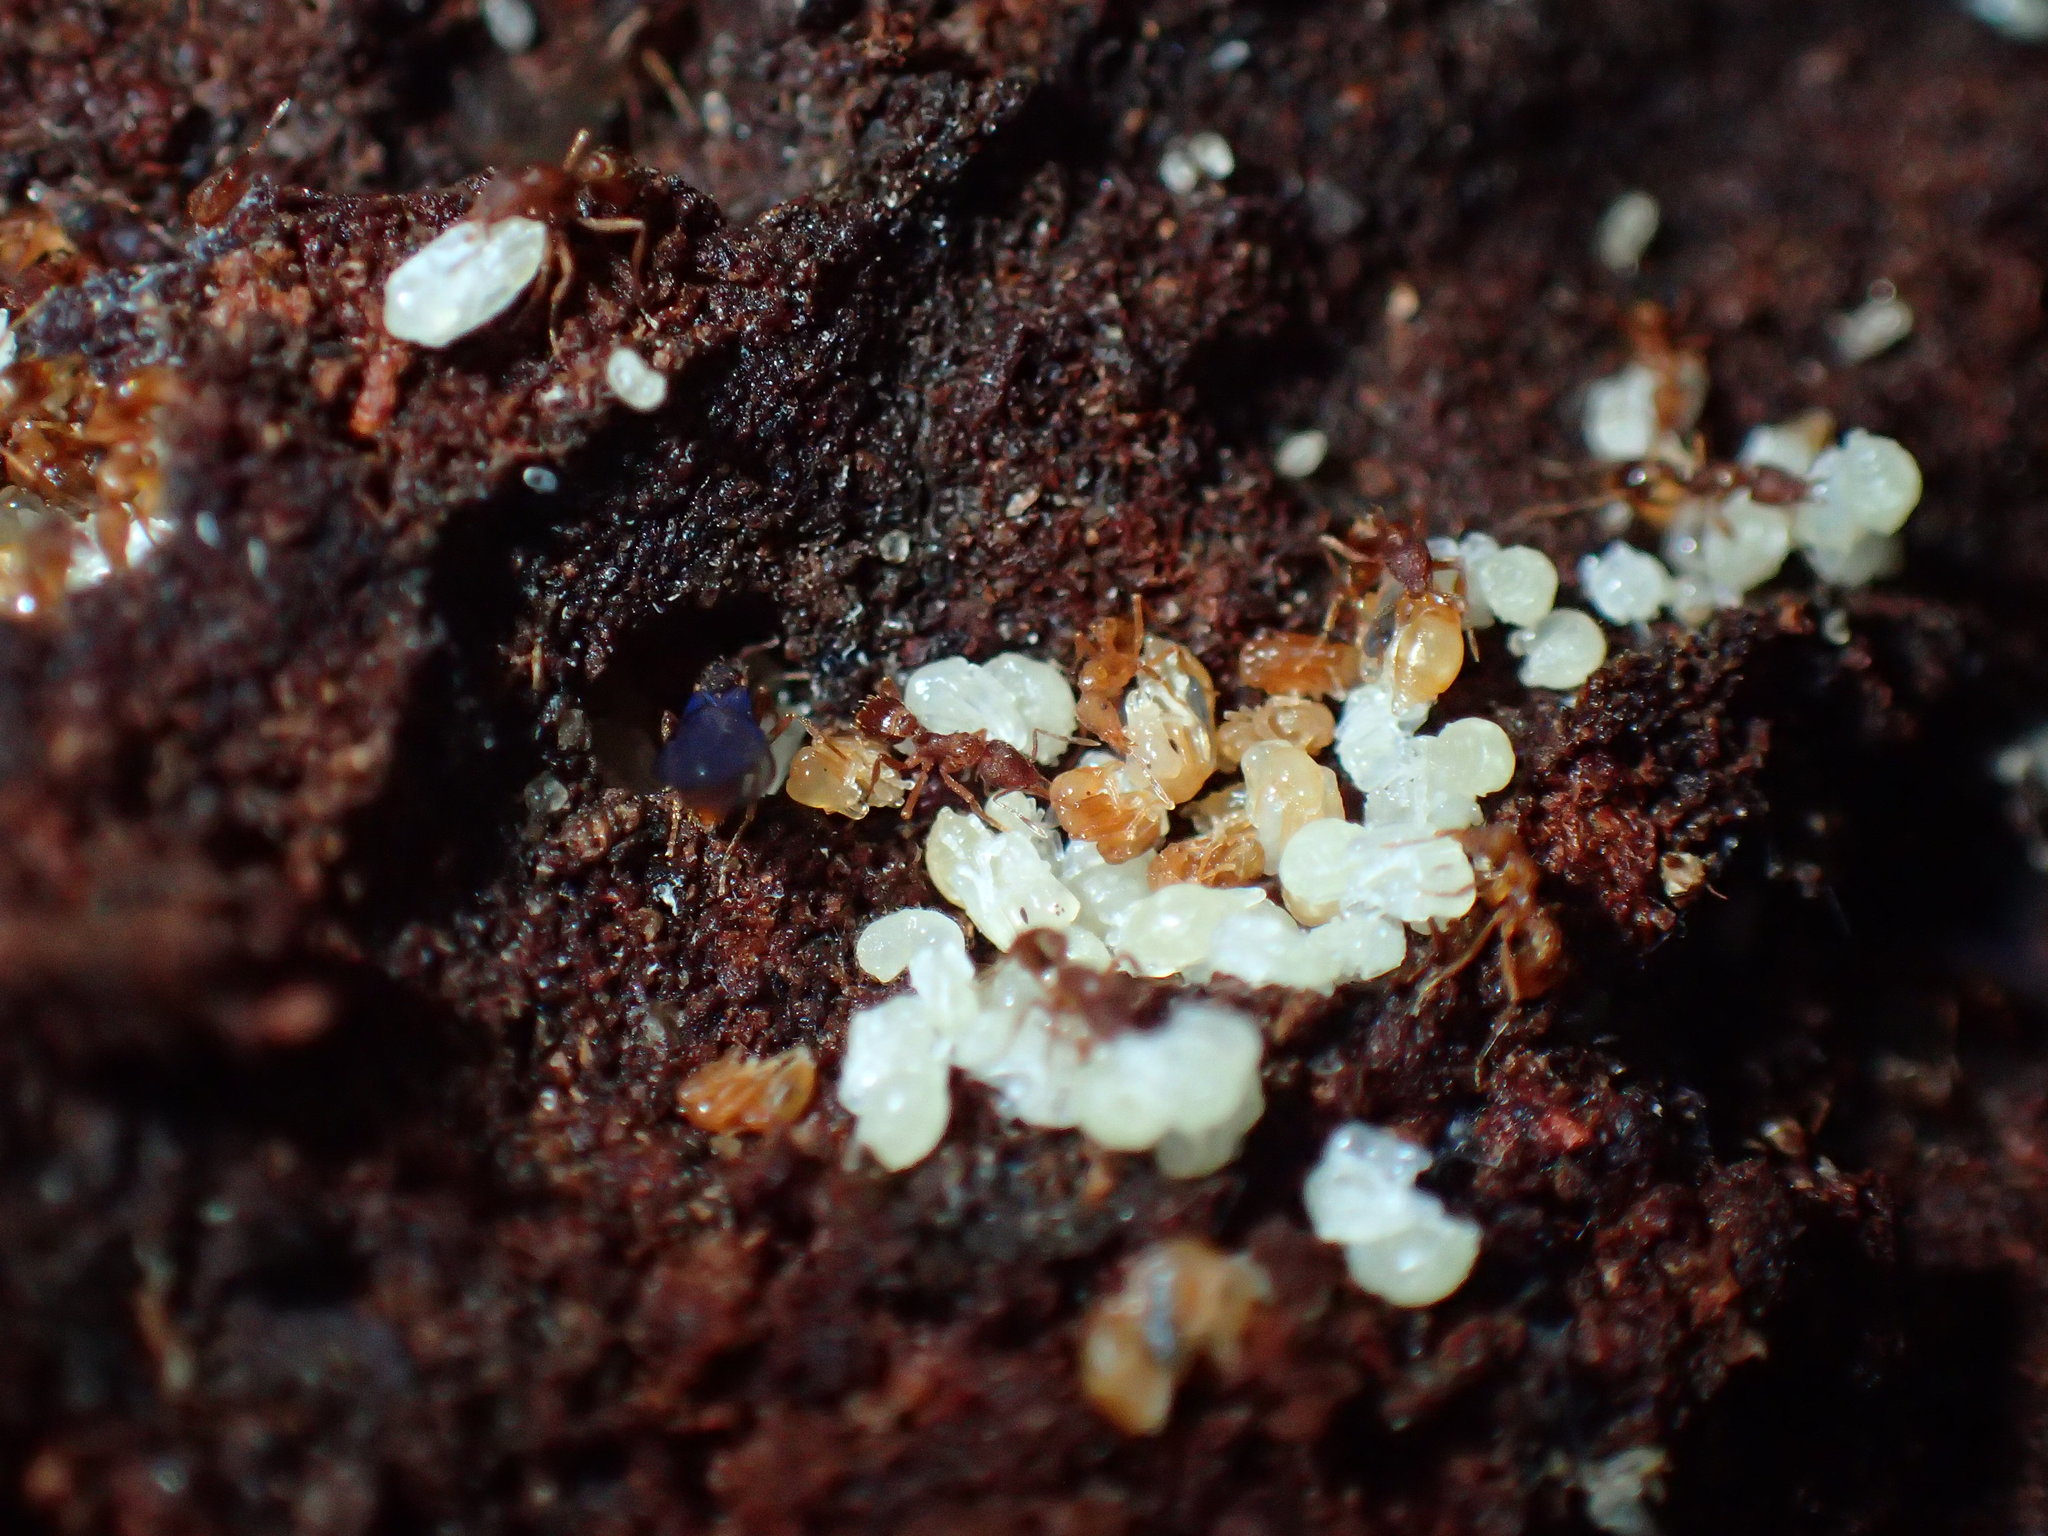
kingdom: Animalia
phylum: Arthropoda
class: Insecta
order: Hymenoptera
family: Formicidae
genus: Strumigenys
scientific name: Strumigenys
